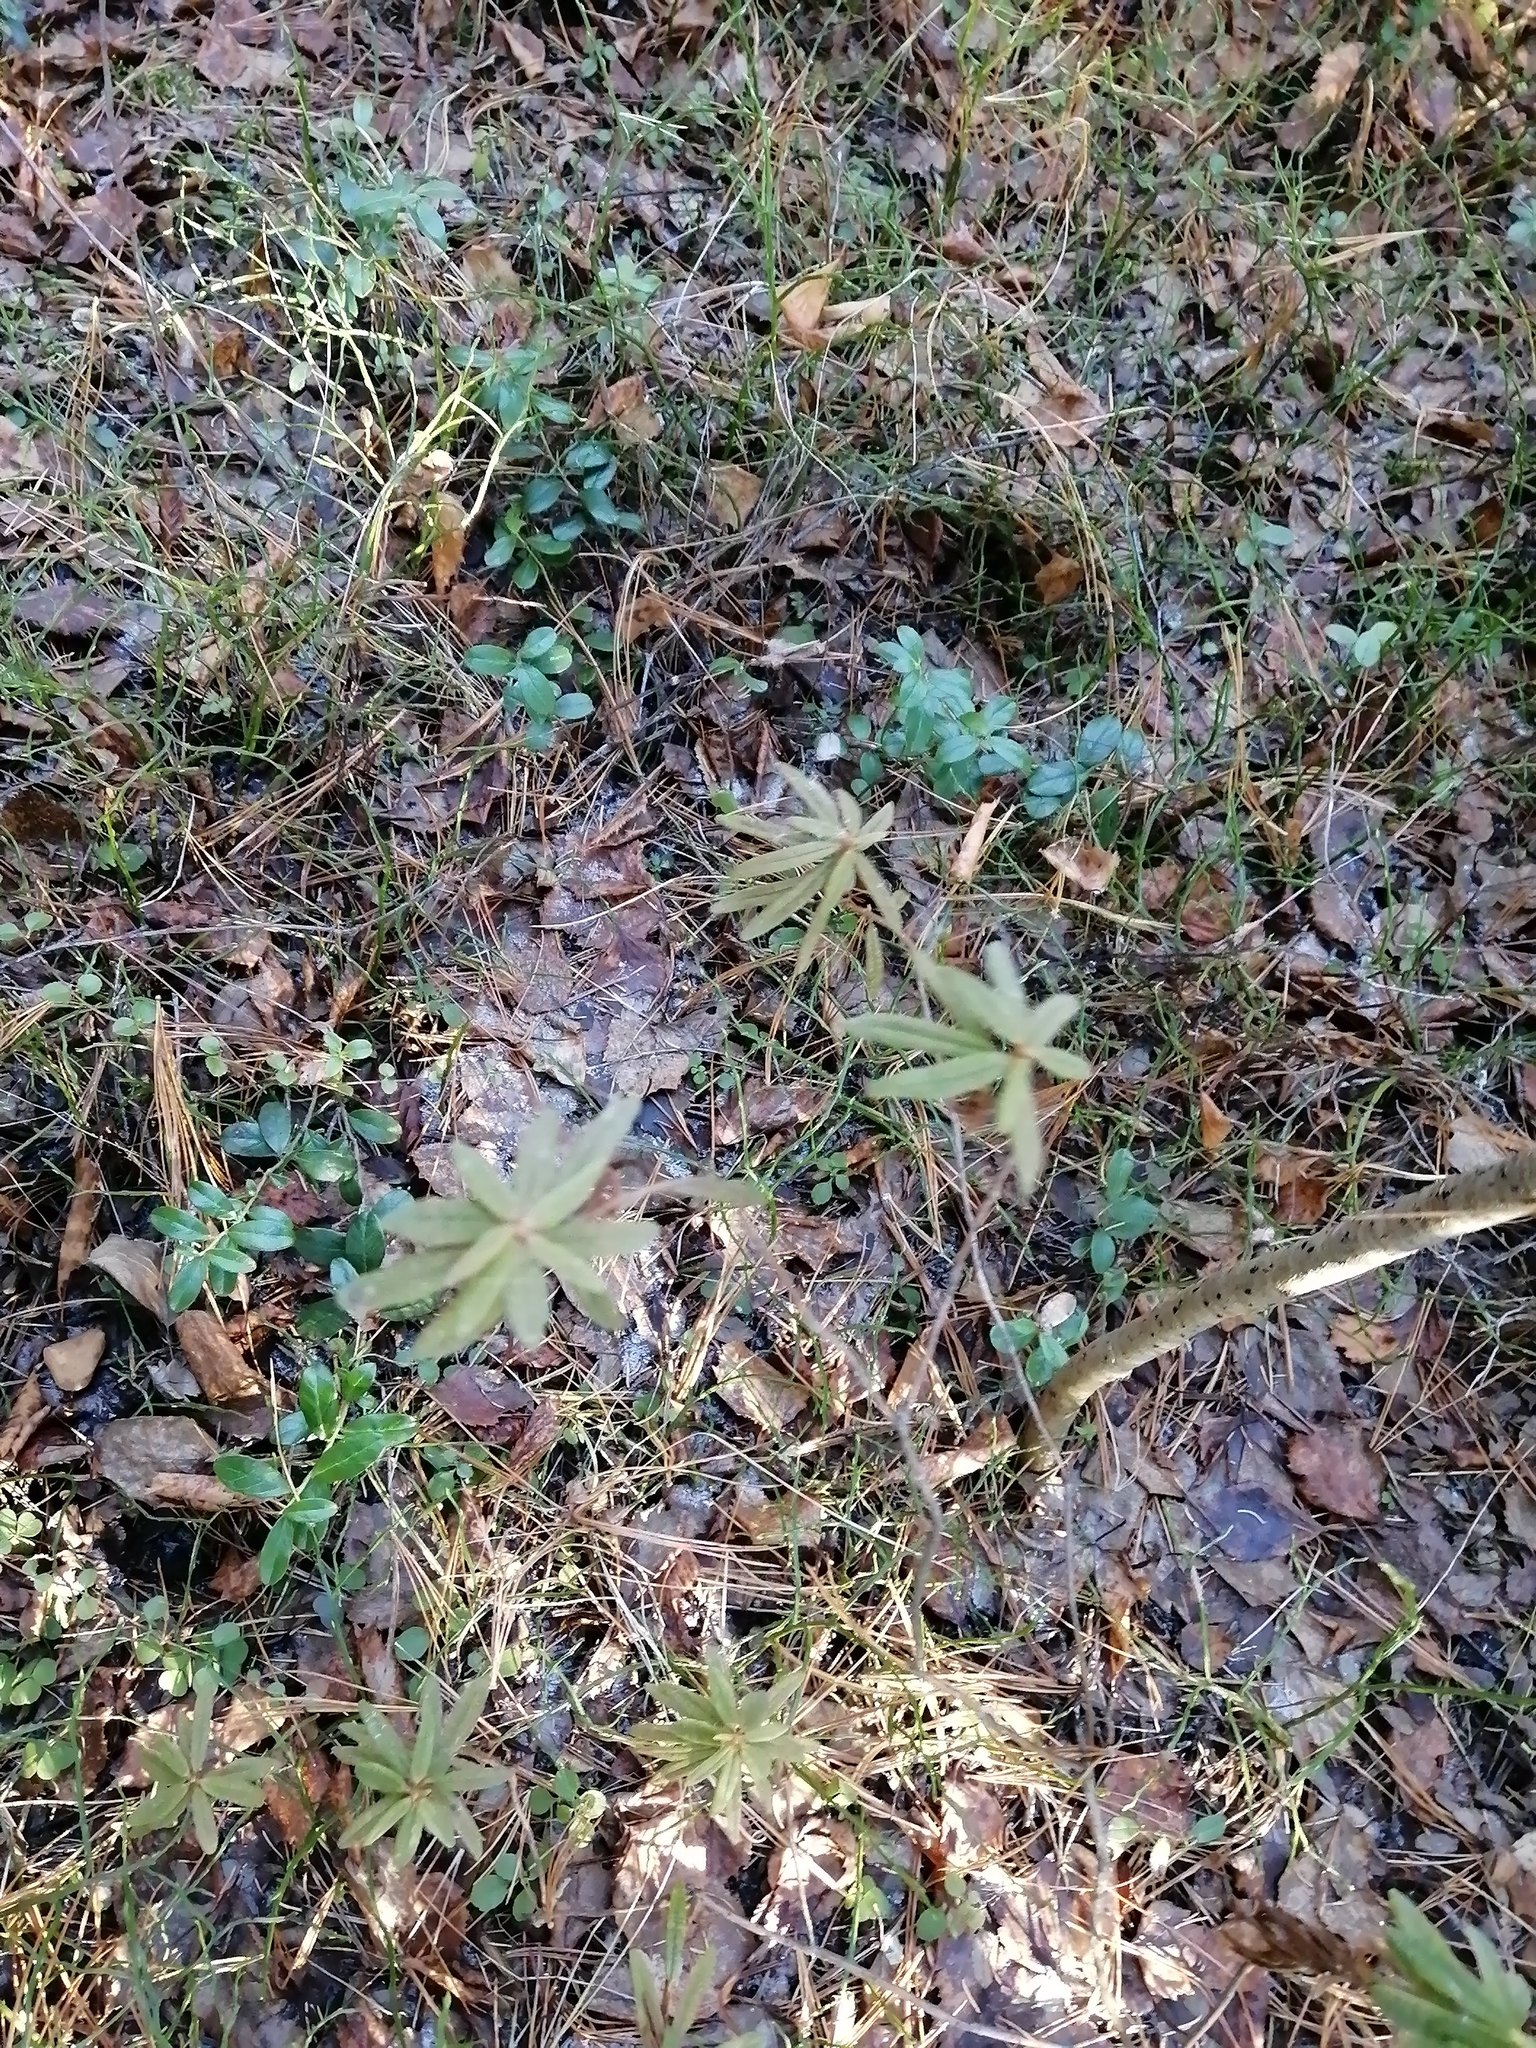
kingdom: Plantae
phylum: Tracheophyta
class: Magnoliopsida
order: Ericales
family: Ericaceae
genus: Rhododendron
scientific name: Rhododendron tomentosum
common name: Marsh labrador tea
